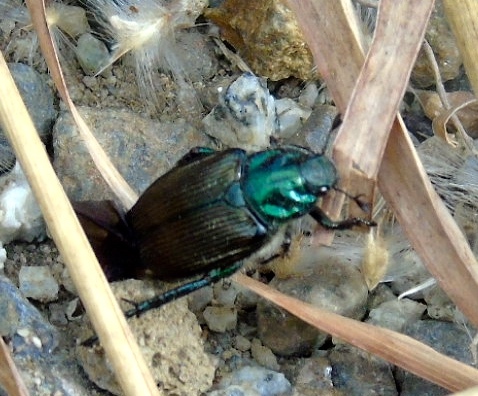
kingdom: Animalia
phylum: Arthropoda
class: Insecta
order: Coleoptera
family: Scarabaeidae
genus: Strigoderma
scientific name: Strigoderma
